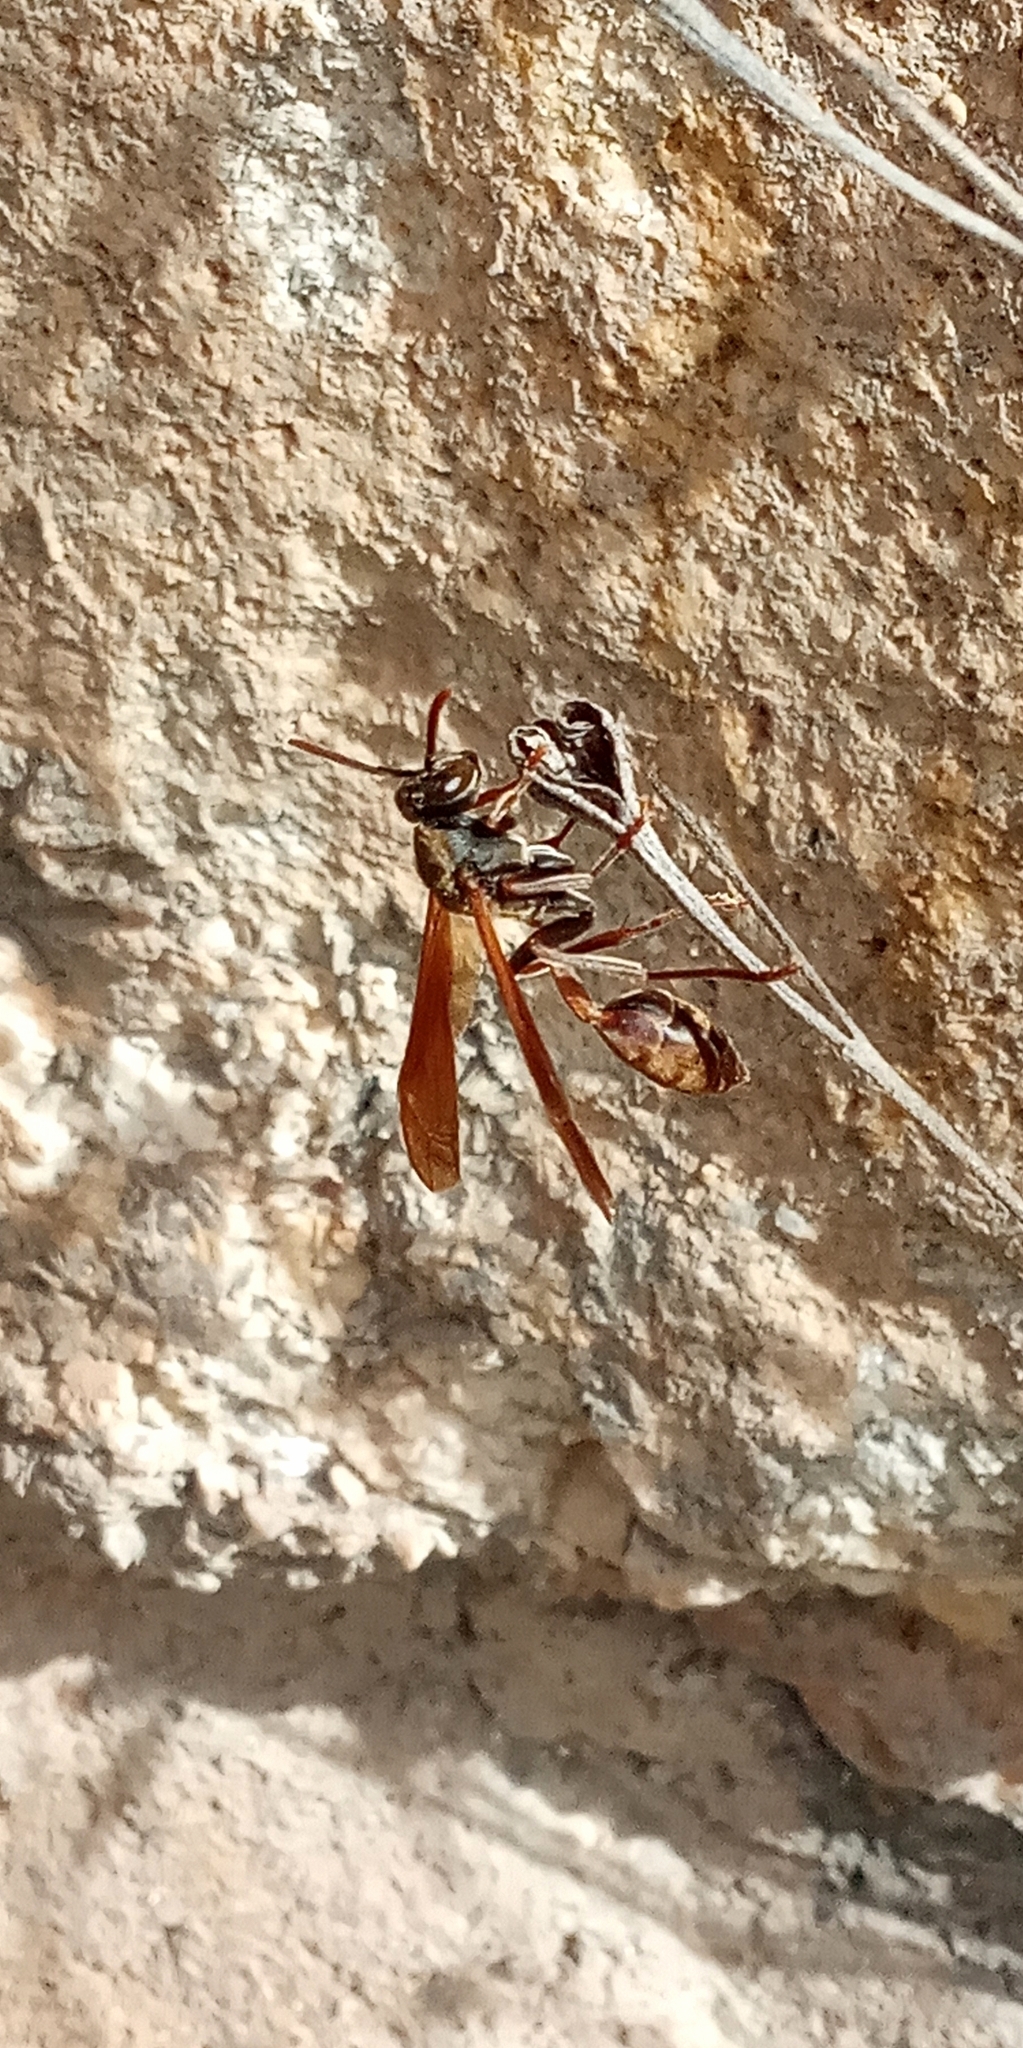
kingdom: Animalia
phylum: Arthropoda
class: Insecta
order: Hymenoptera
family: Vespidae
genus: Mischocyttarus
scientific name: Mischocyttarus drewseni
